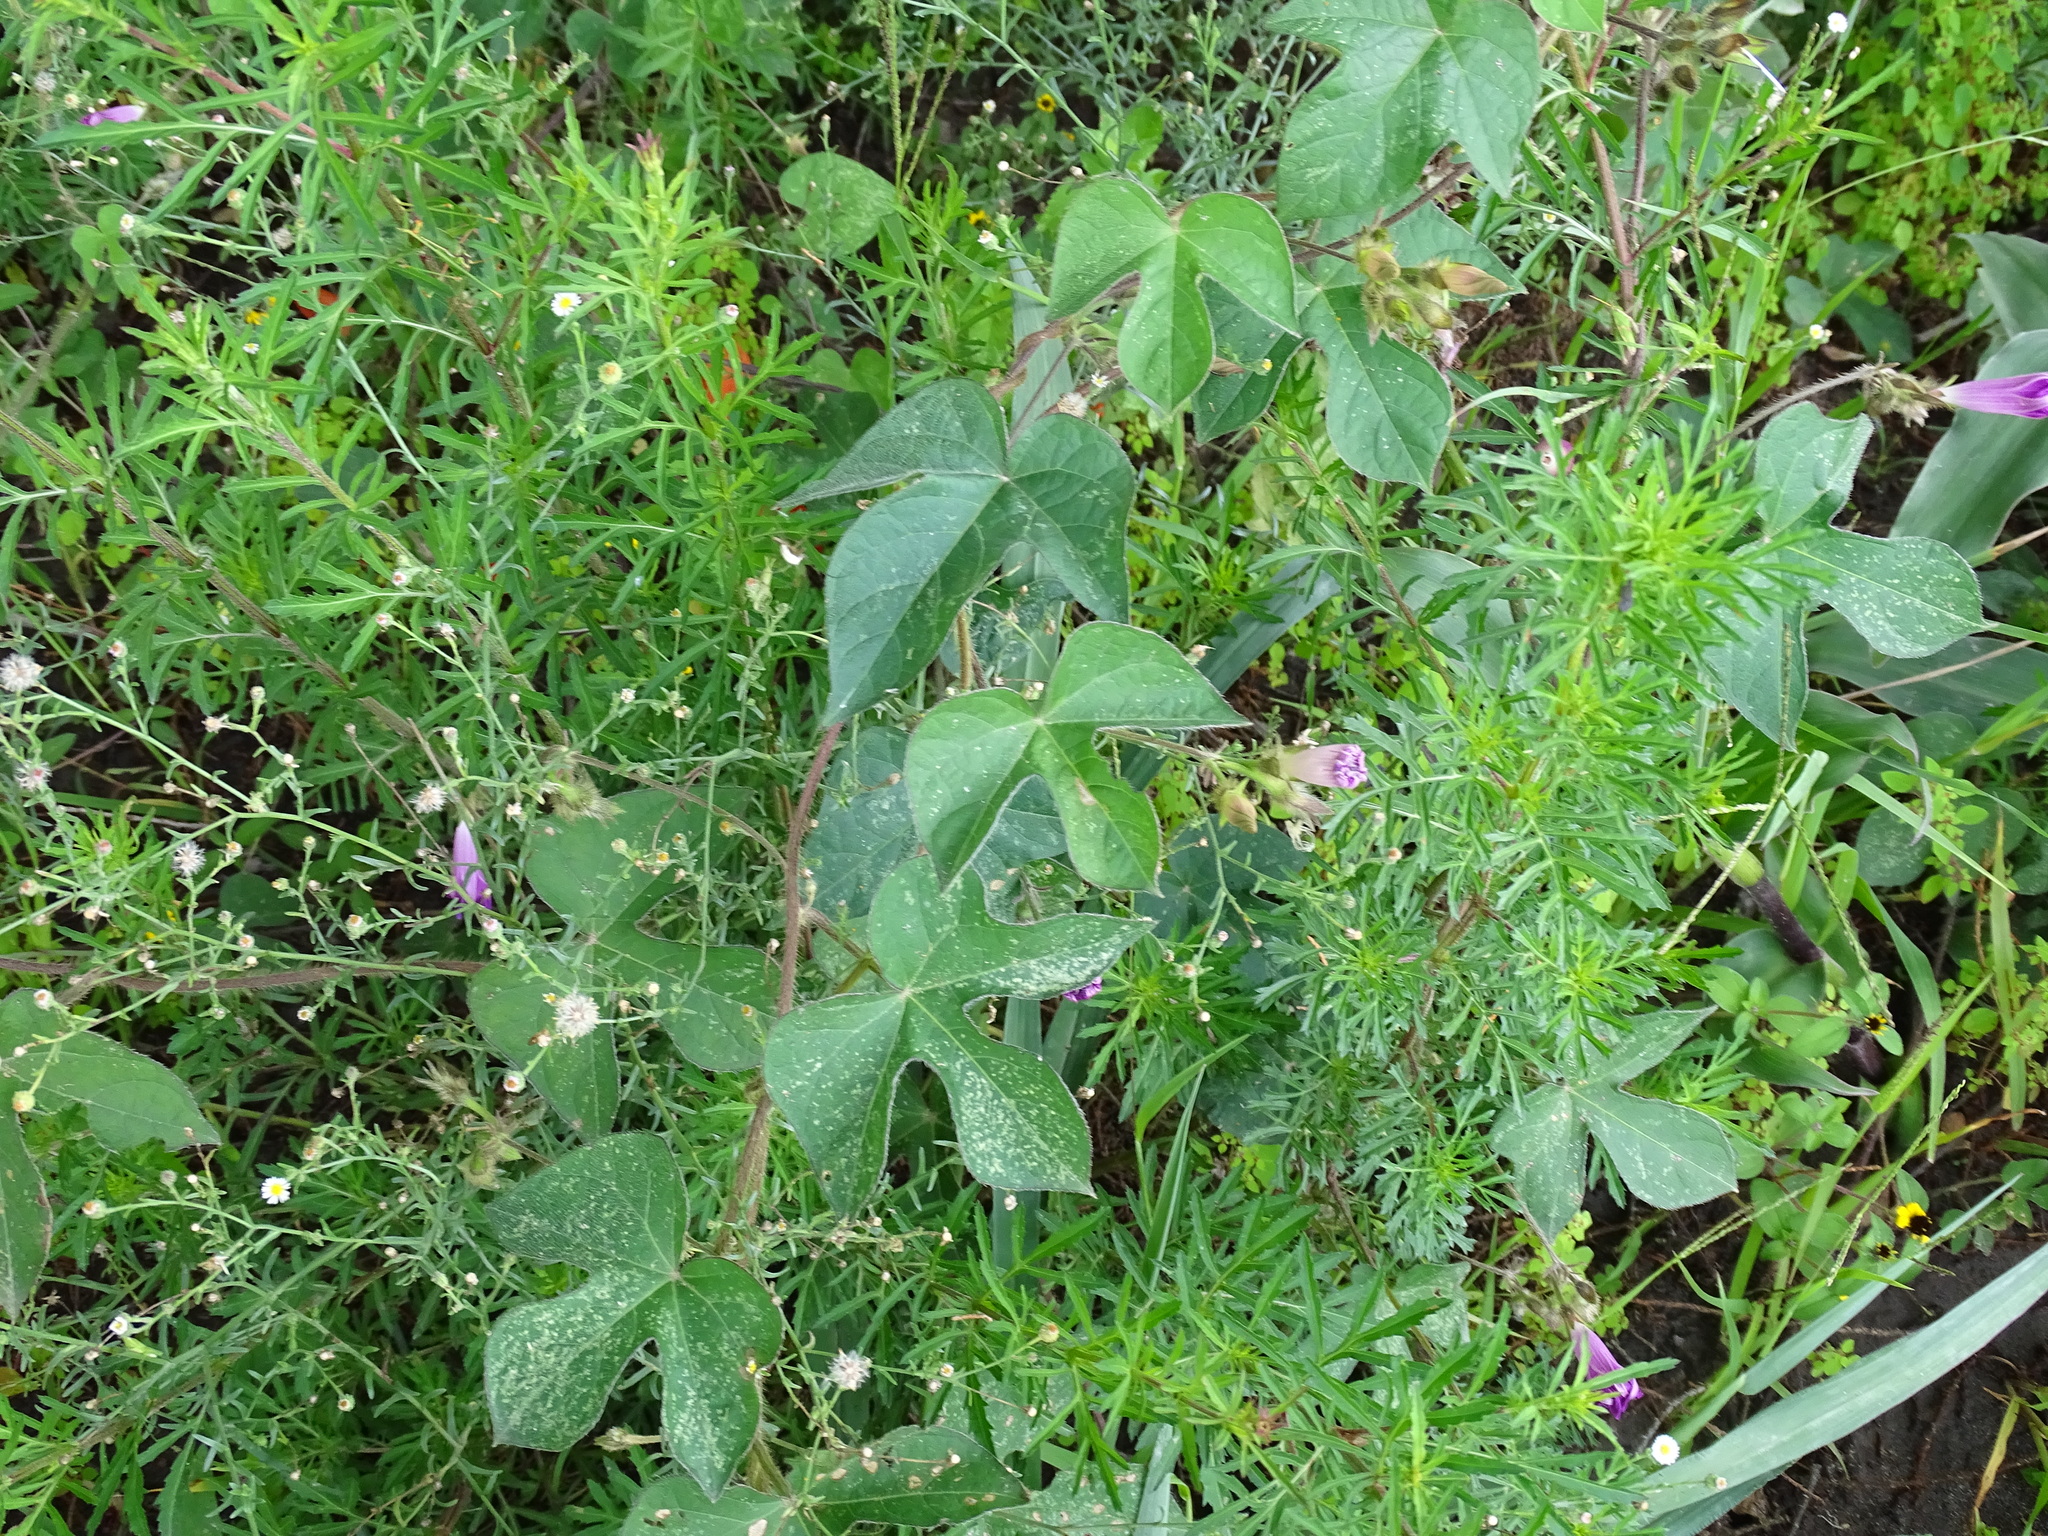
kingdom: Plantae
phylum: Tracheophyta
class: Magnoliopsida
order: Solanales
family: Convolvulaceae
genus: Ipomoea
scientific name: Ipomoea purpurea
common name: Common morning-glory
